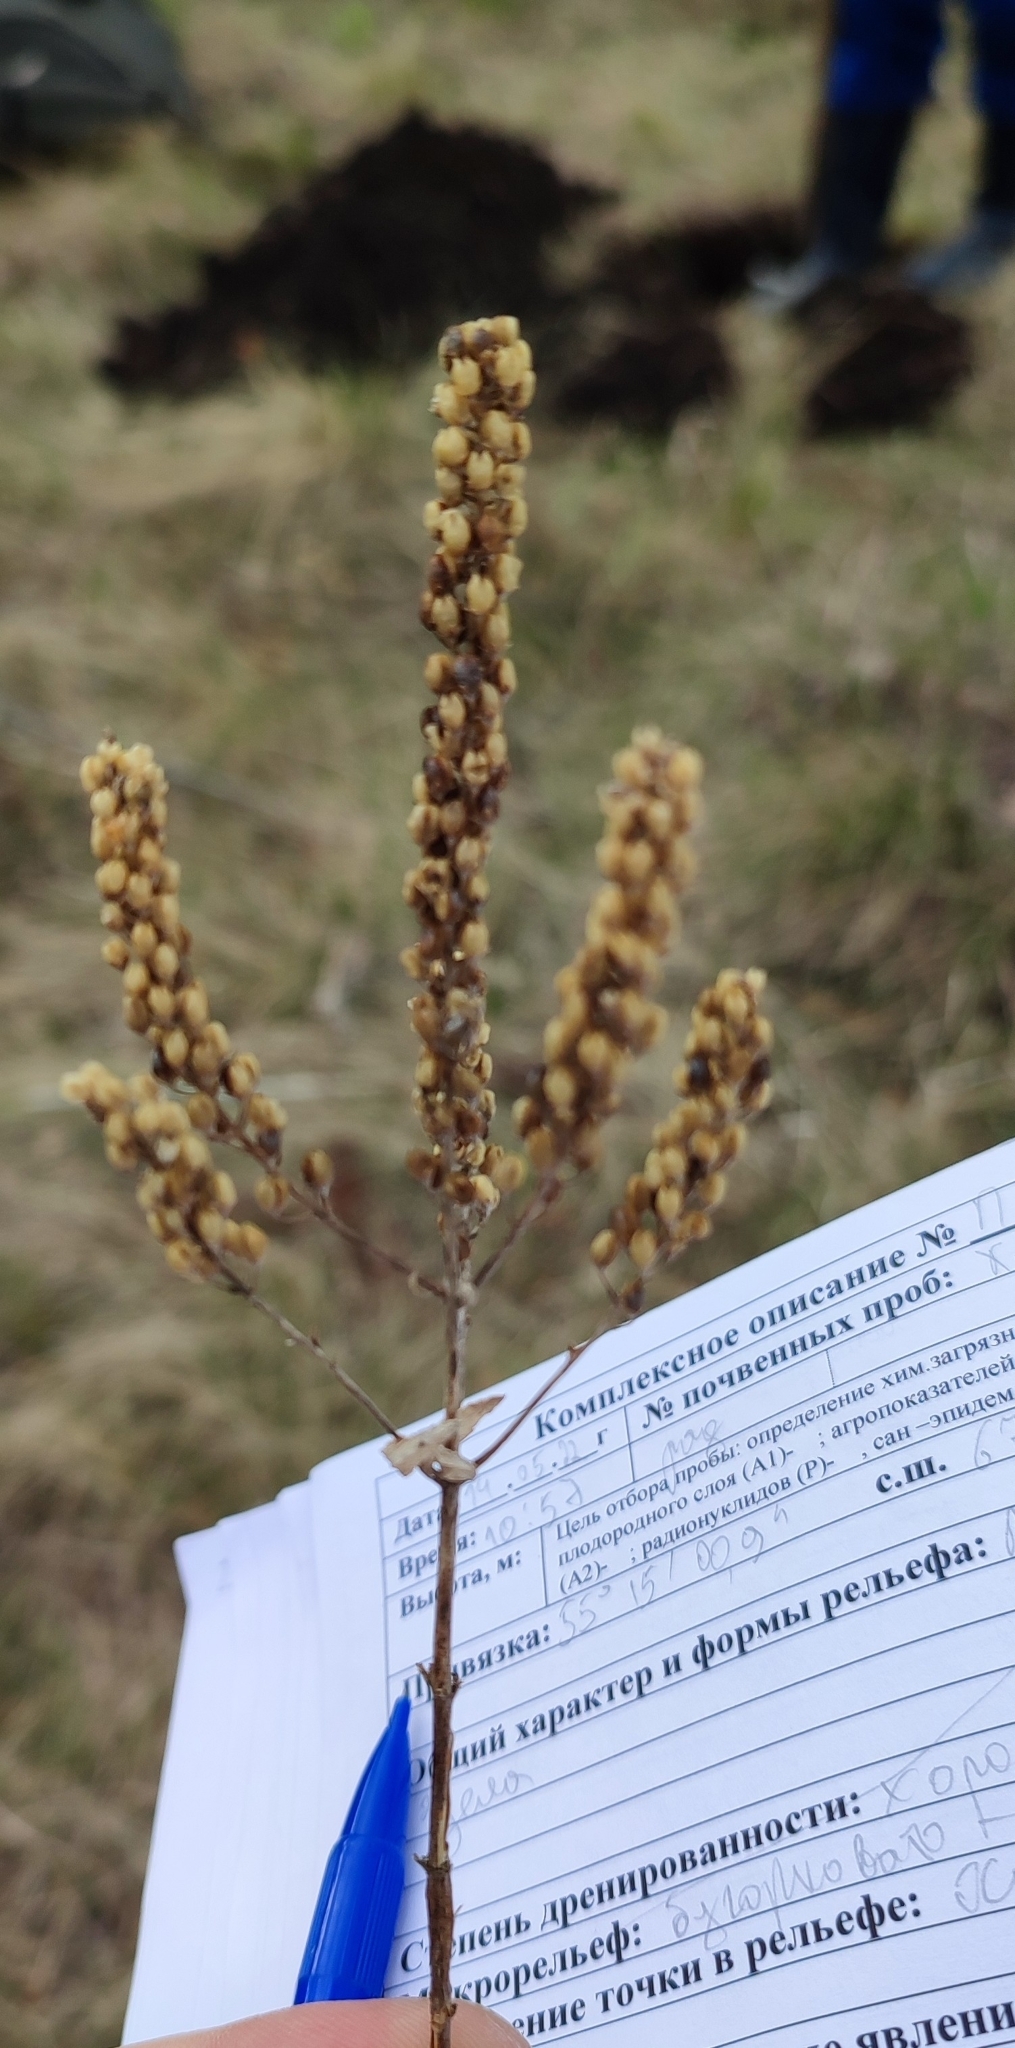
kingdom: Plantae
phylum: Tracheophyta
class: Magnoliopsida
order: Lamiales
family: Plantaginaceae
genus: Veronica
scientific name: Veronica longifolia
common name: Garden speedwell
